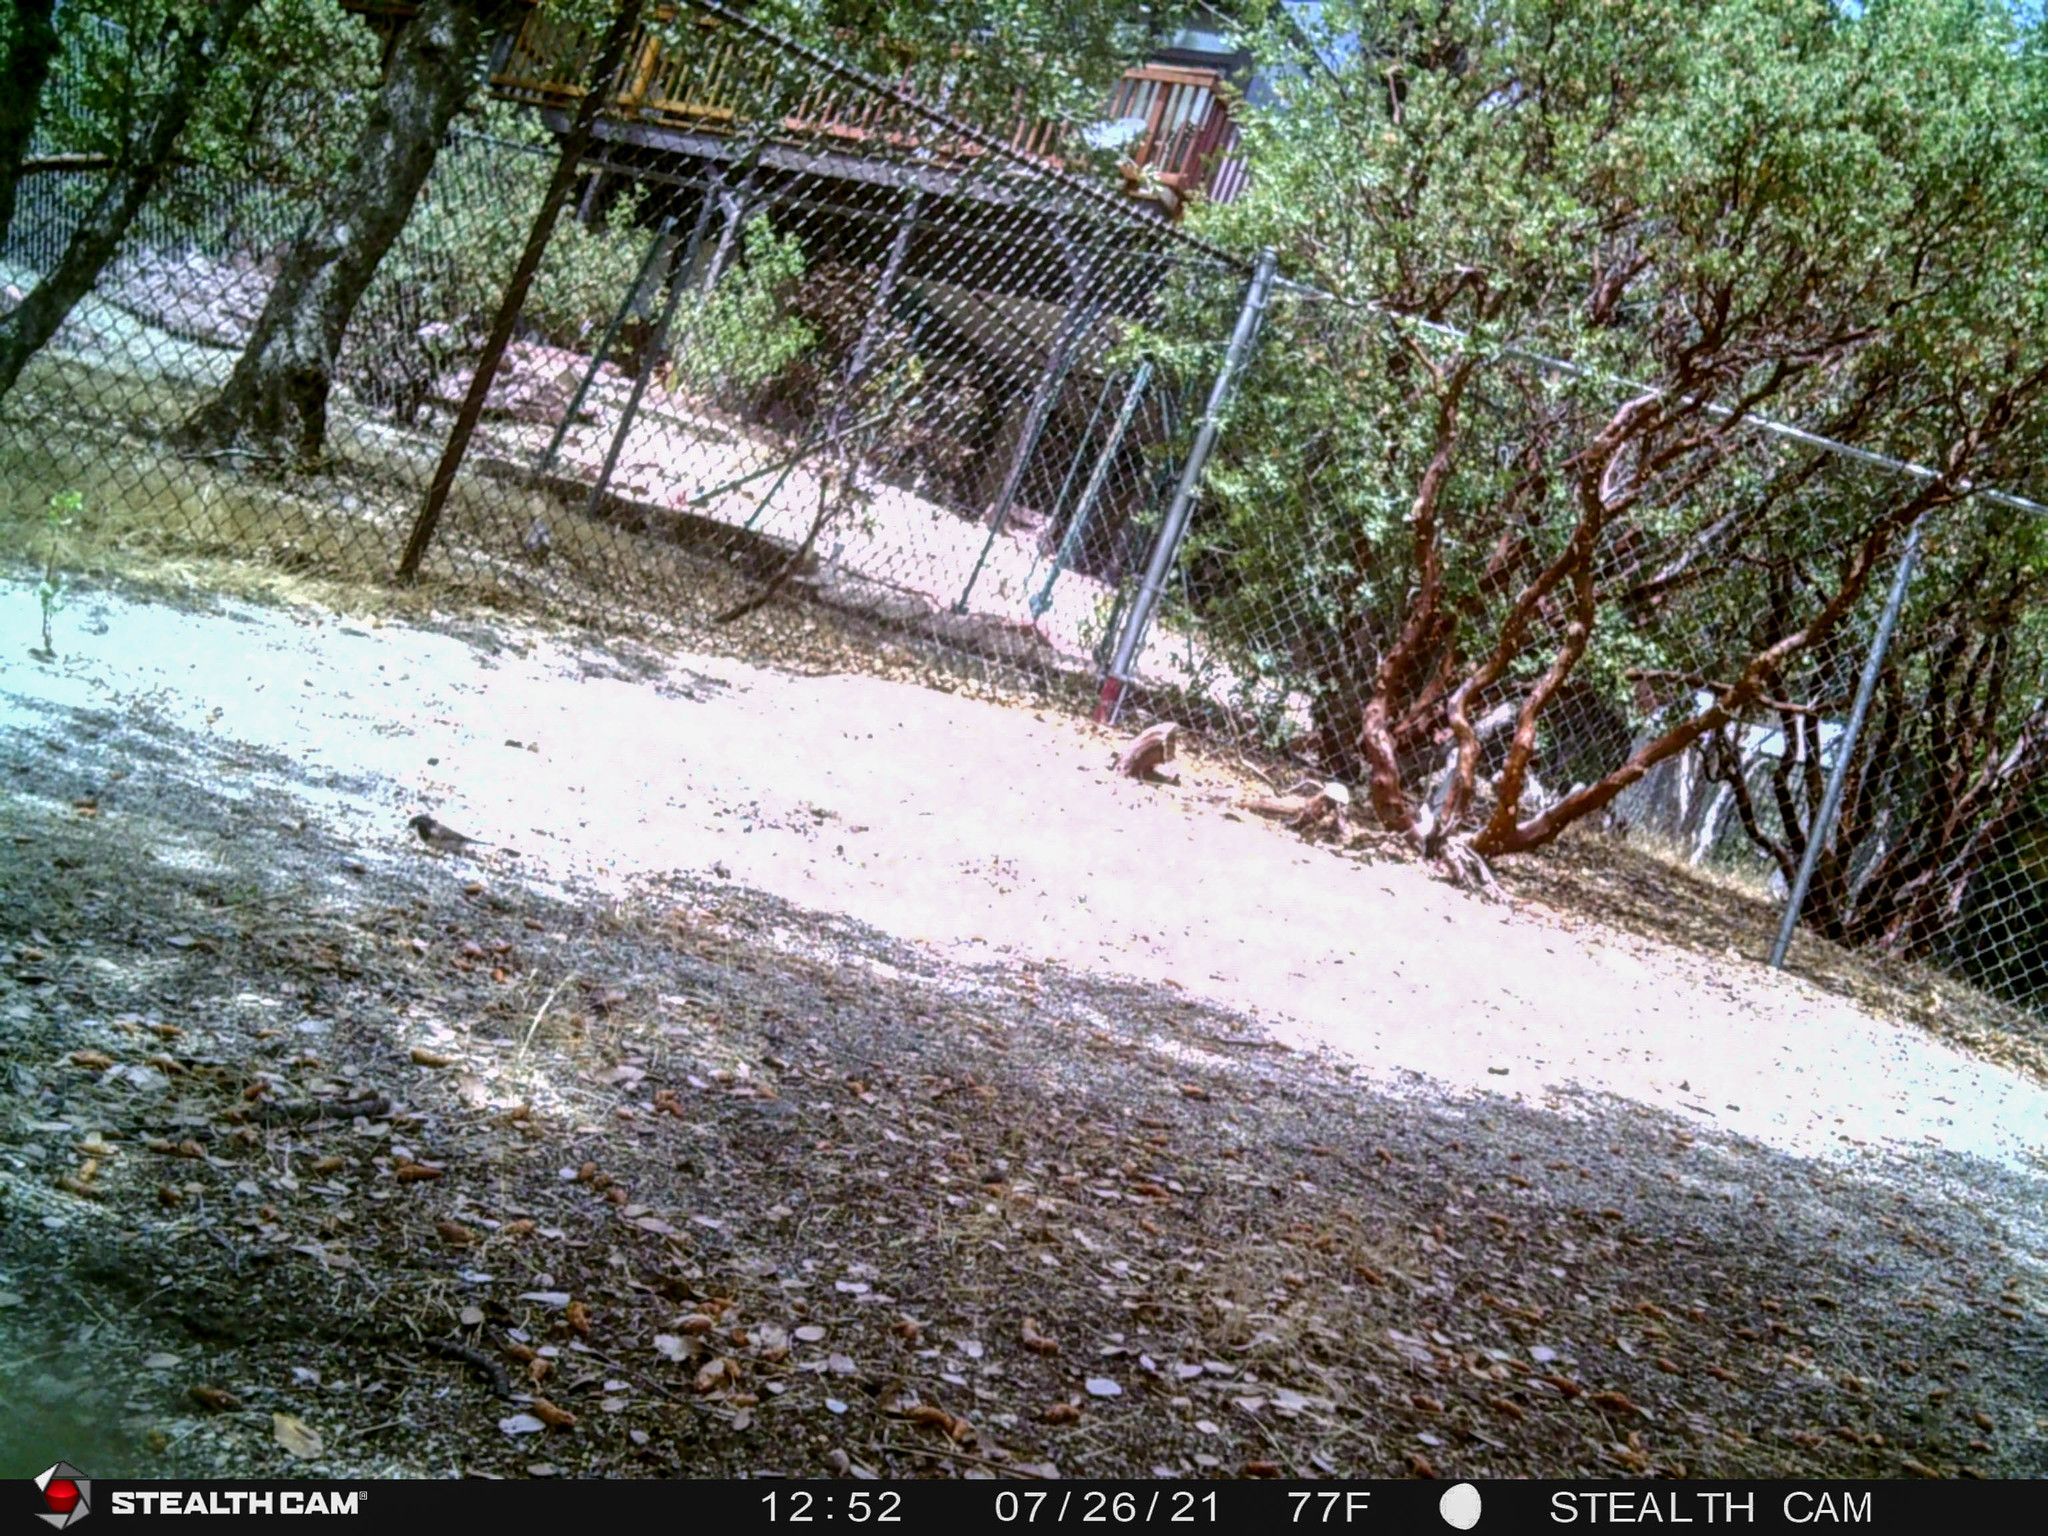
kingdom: Animalia
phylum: Chordata
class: Aves
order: Passeriformes
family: Passerellidae
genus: Junco
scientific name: Junco hyemalis
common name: Dark-eyed junco
